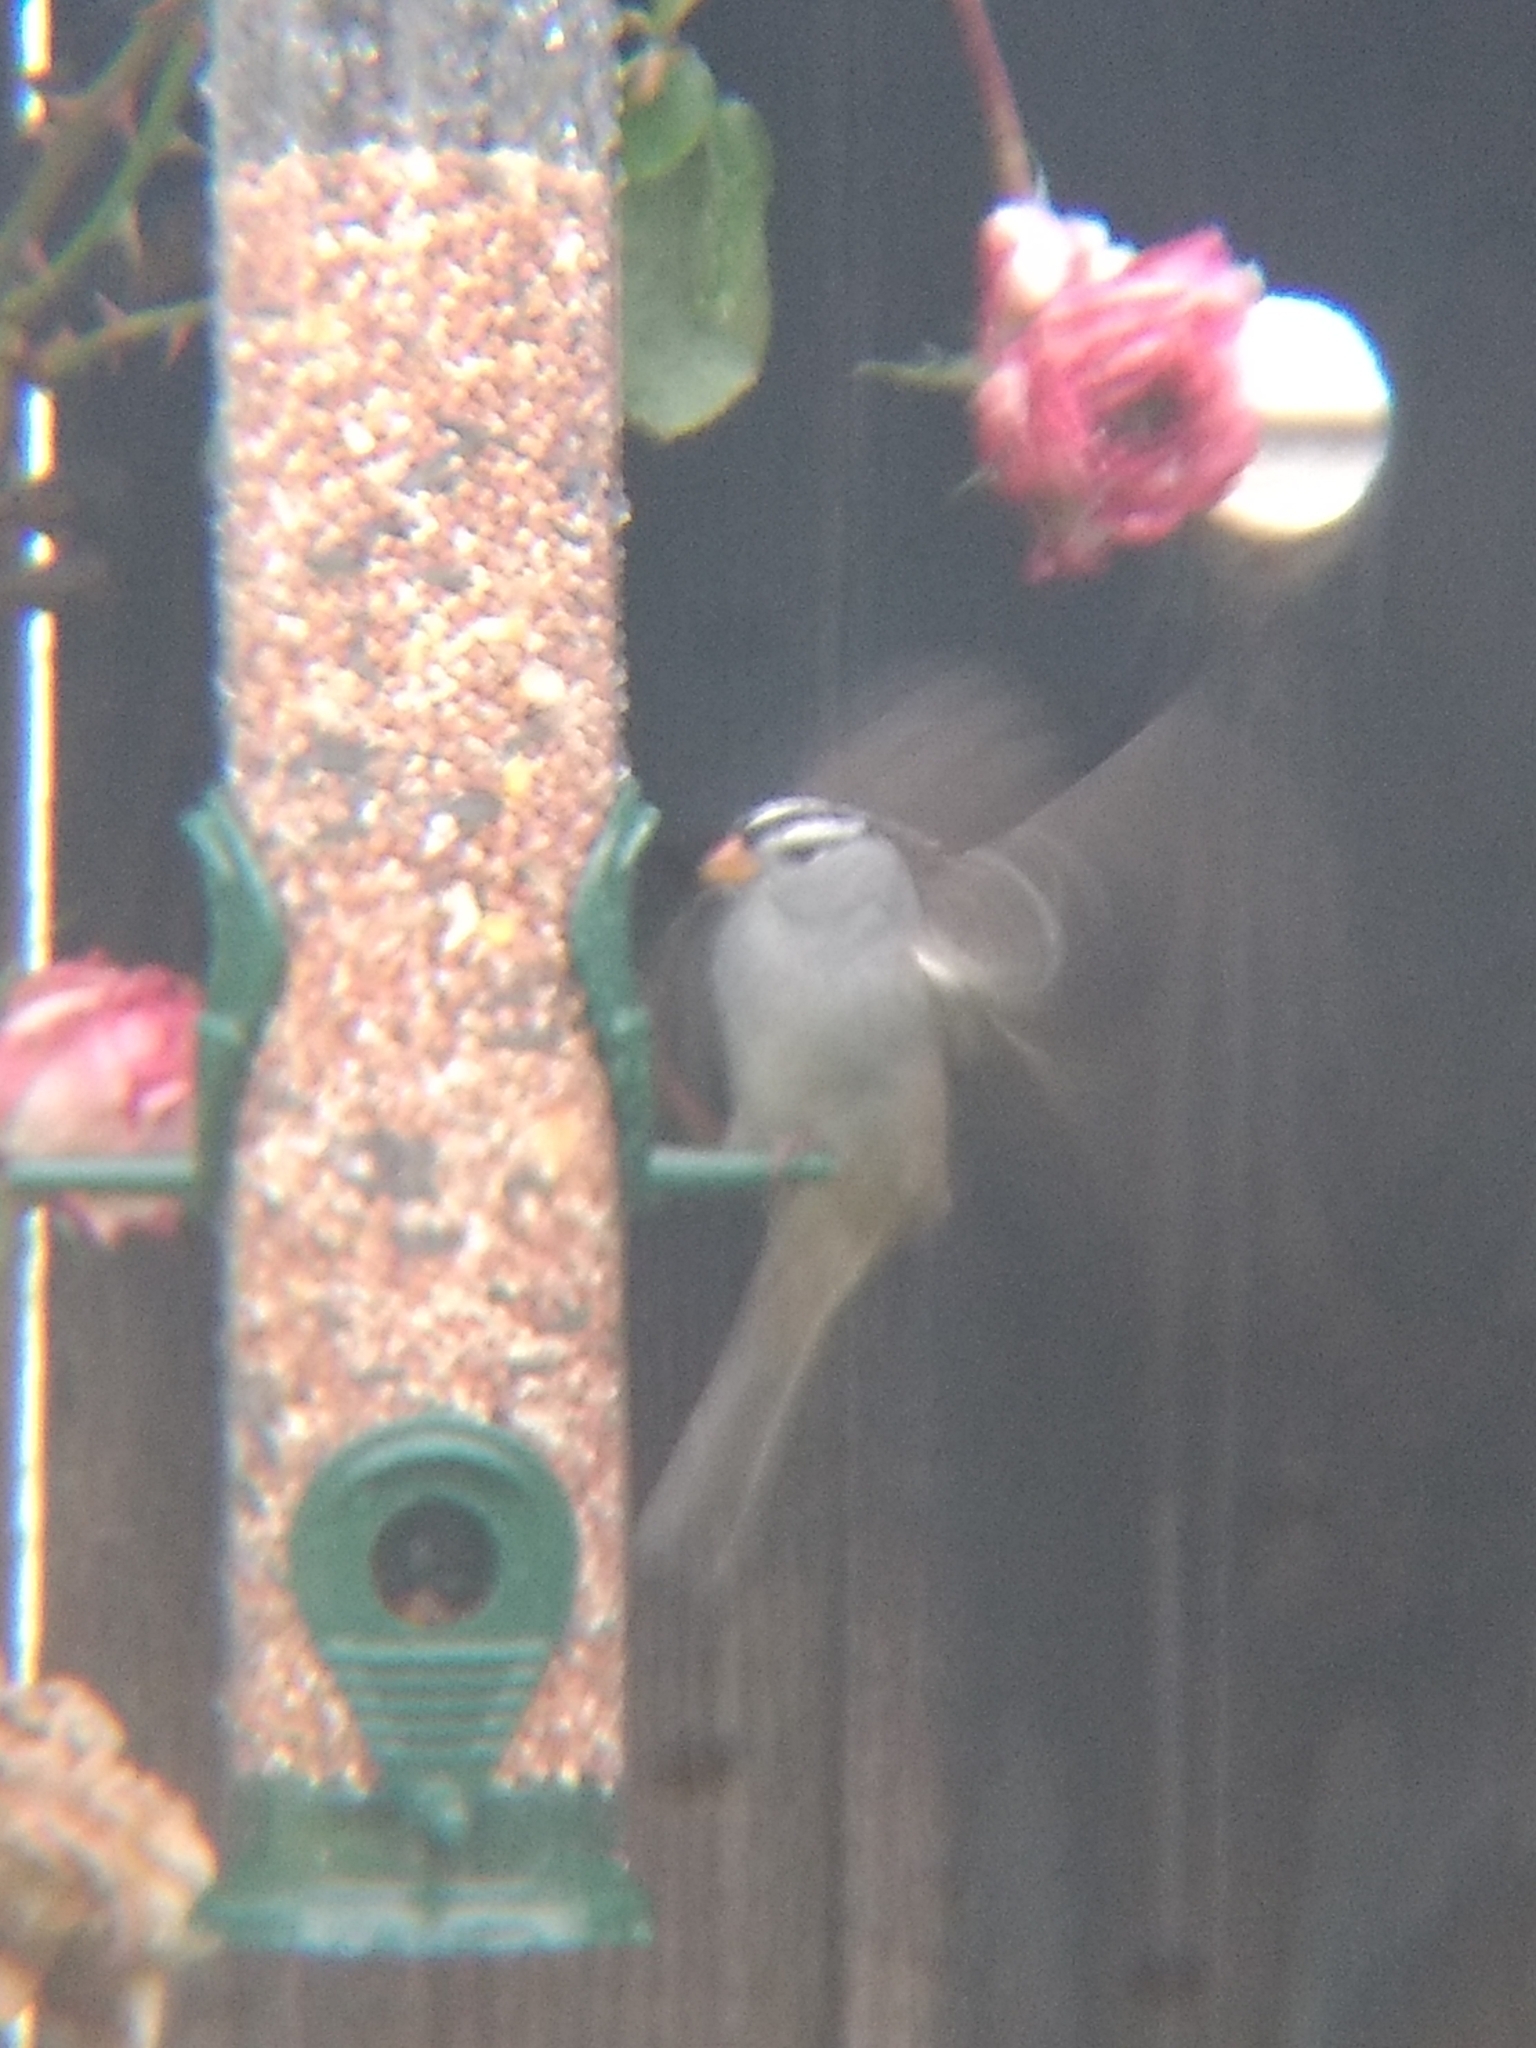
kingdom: Animalia
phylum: Chordata
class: Aves
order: Passeriformes
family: Passerellidae
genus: Zonotrichia
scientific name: Zonotrichia leucophrys
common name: White-crowned sparrow
